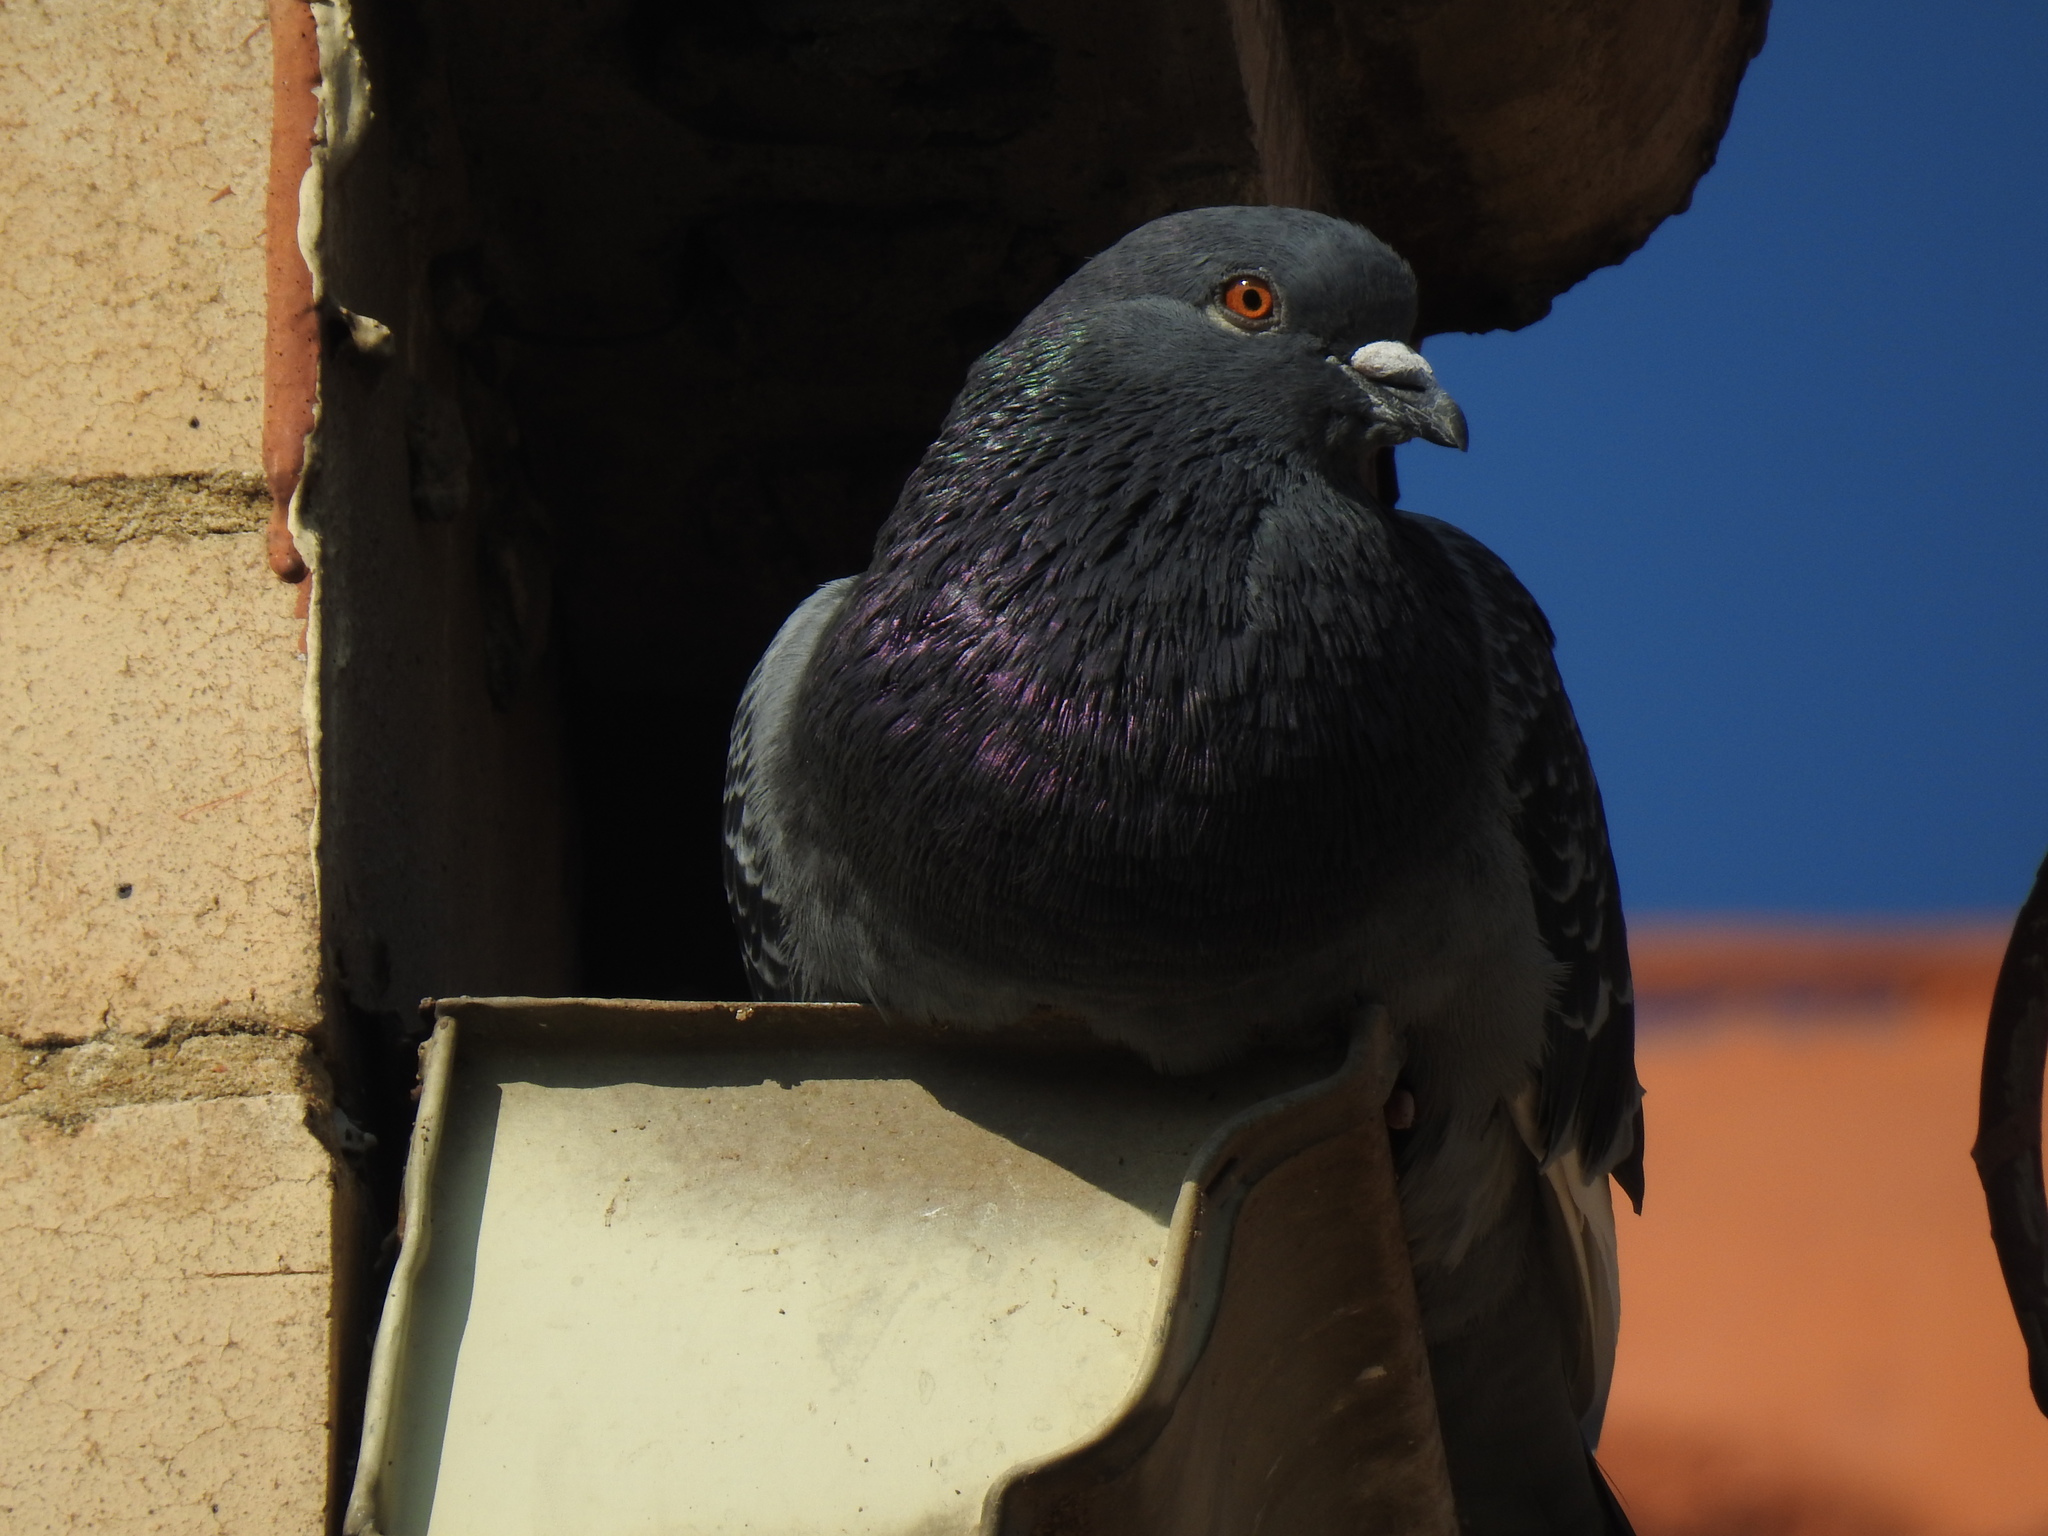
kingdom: Animalia
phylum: Chordata
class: Aves
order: Columbiformes
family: Columbidae
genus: Columba
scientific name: Columba livia
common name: Rock pigeon
